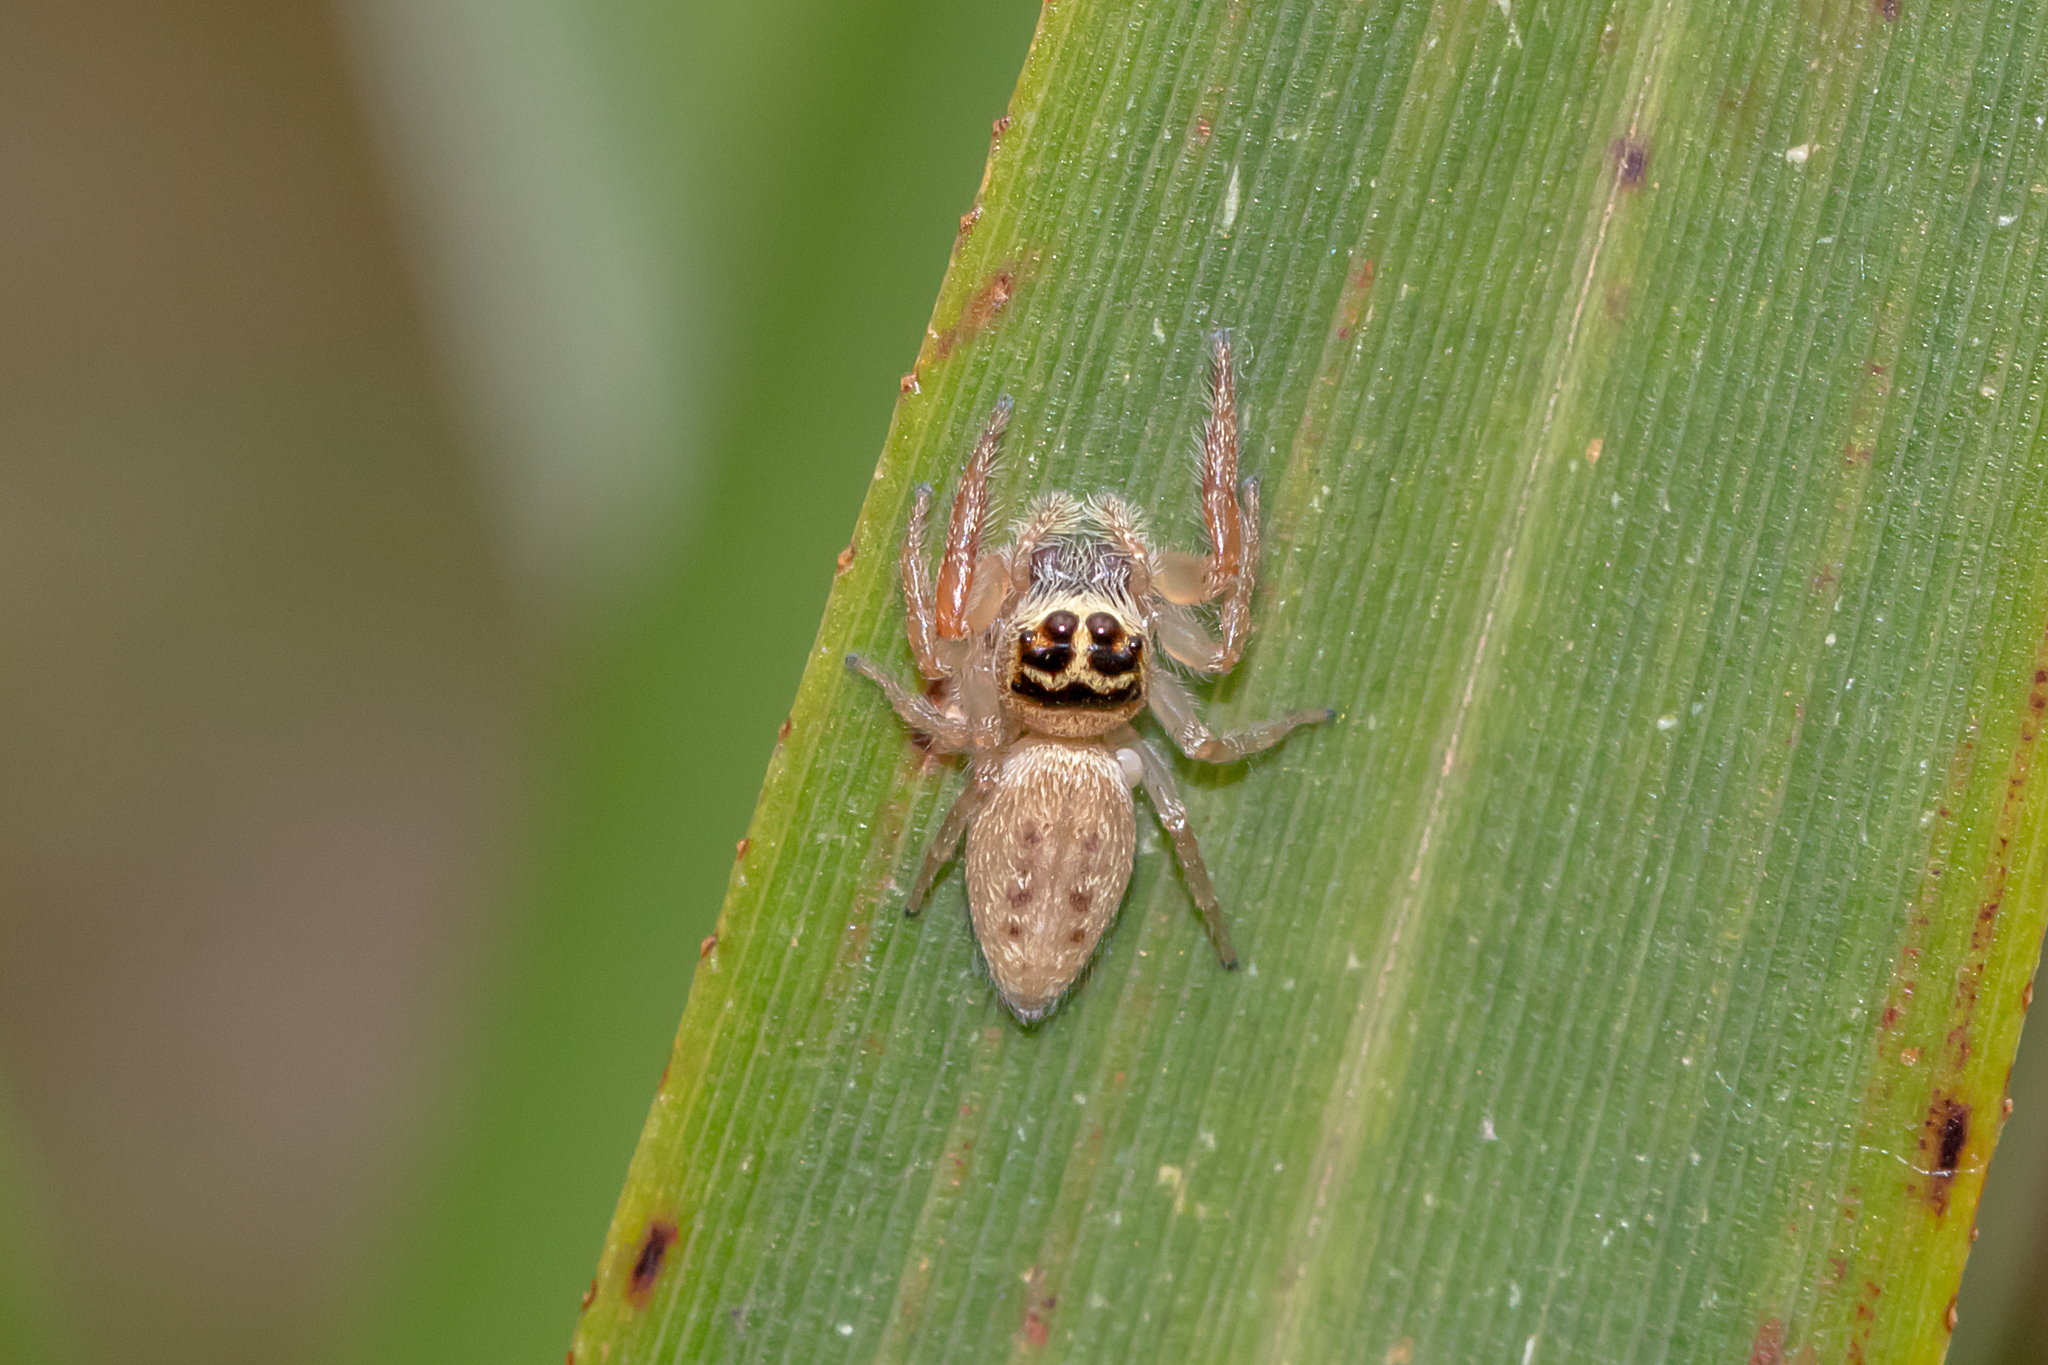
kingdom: Animalia
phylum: Arthropoda
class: Arachnida
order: Araneae
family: Salticidae
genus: Opisthoncus
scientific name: Opisthoncus nigrofemoratus
